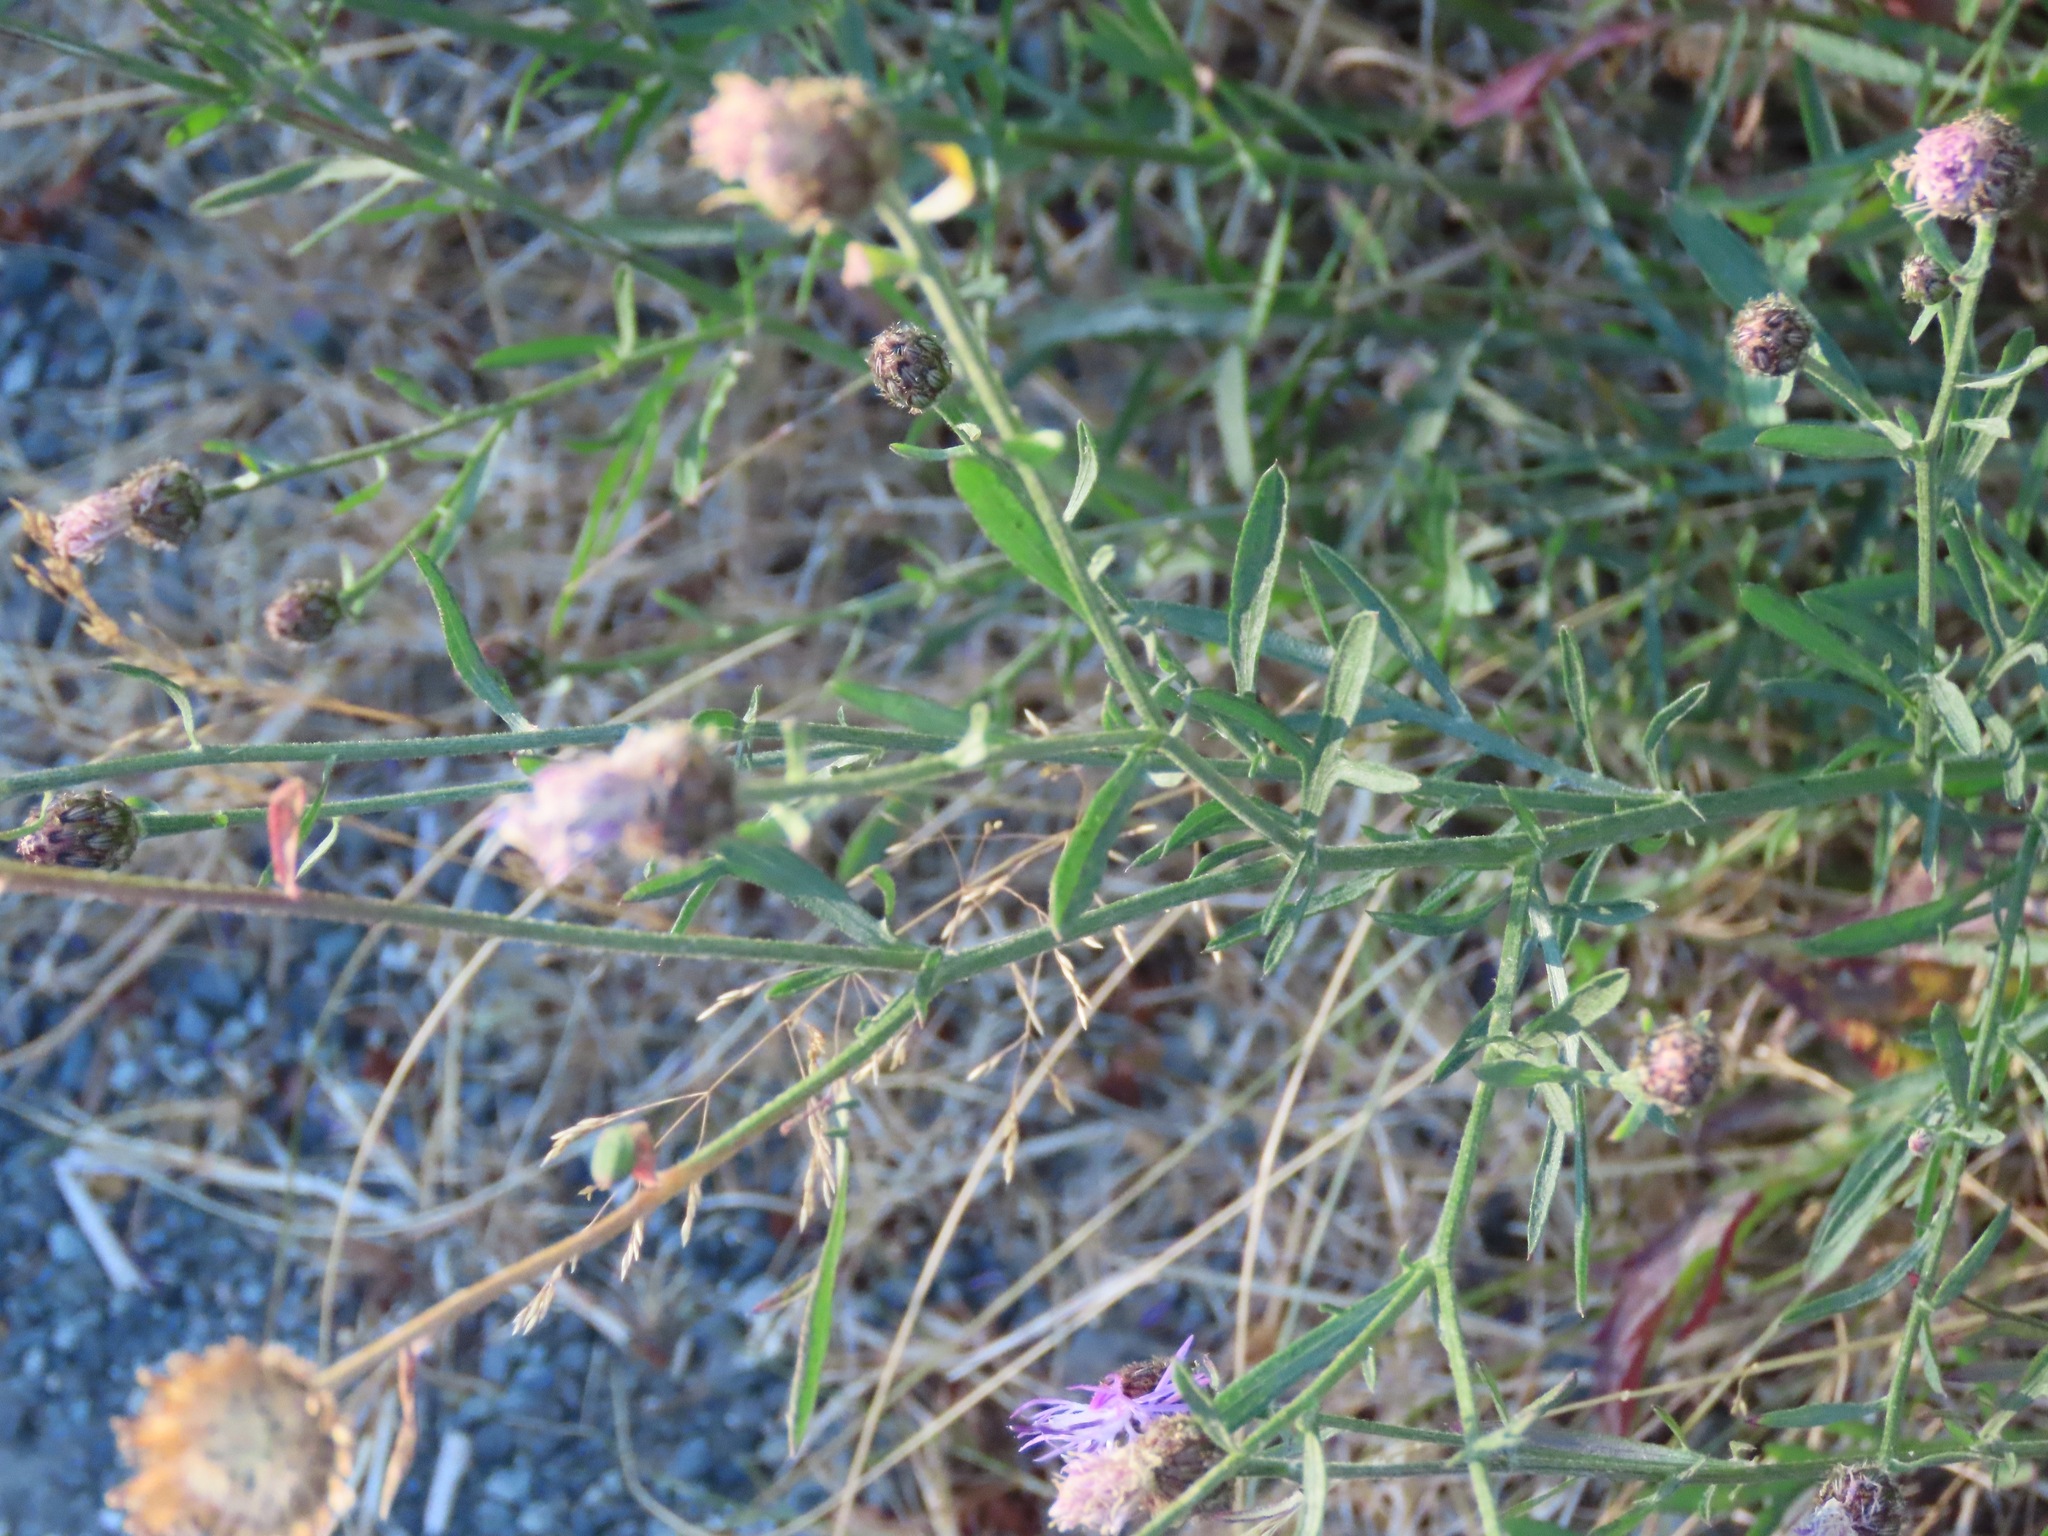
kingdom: Plantae
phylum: Tracheophyta
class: Magnoliopsida
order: Asterales
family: Asteraceae
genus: Centaurea
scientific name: Centaurea stoebe
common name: Spotted knapweed
